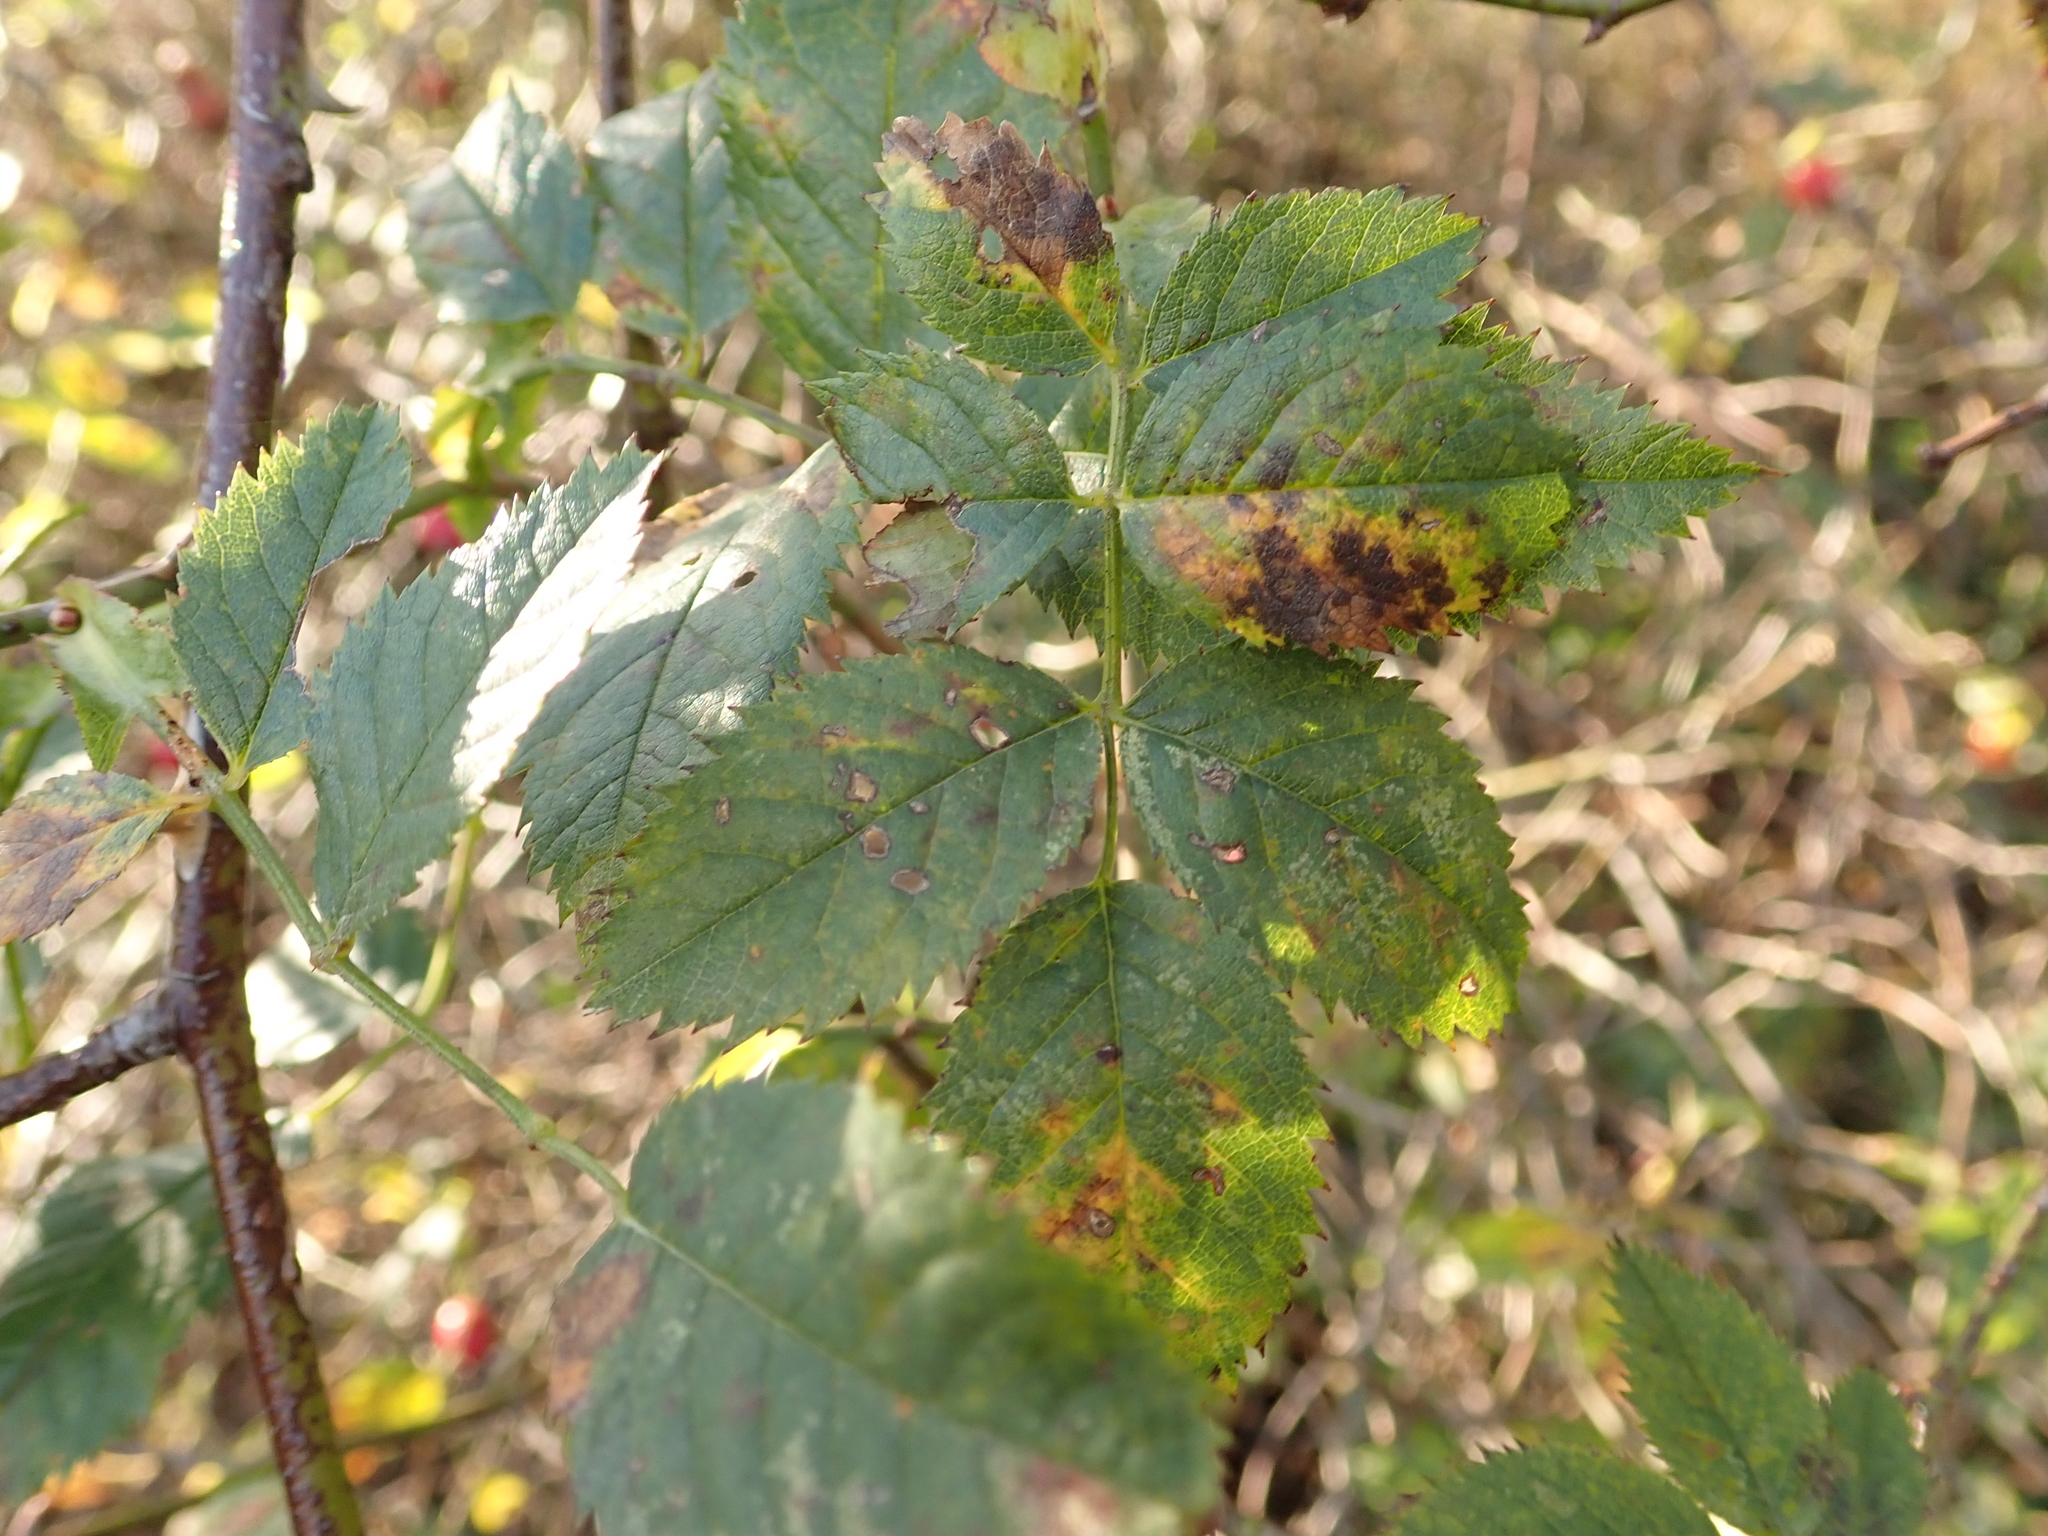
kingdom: Plantae
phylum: Tracheophyta
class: Magnoliopsida
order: Rosales
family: Rosaceae
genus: Rosa
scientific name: Rosa canina
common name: Dog rose
